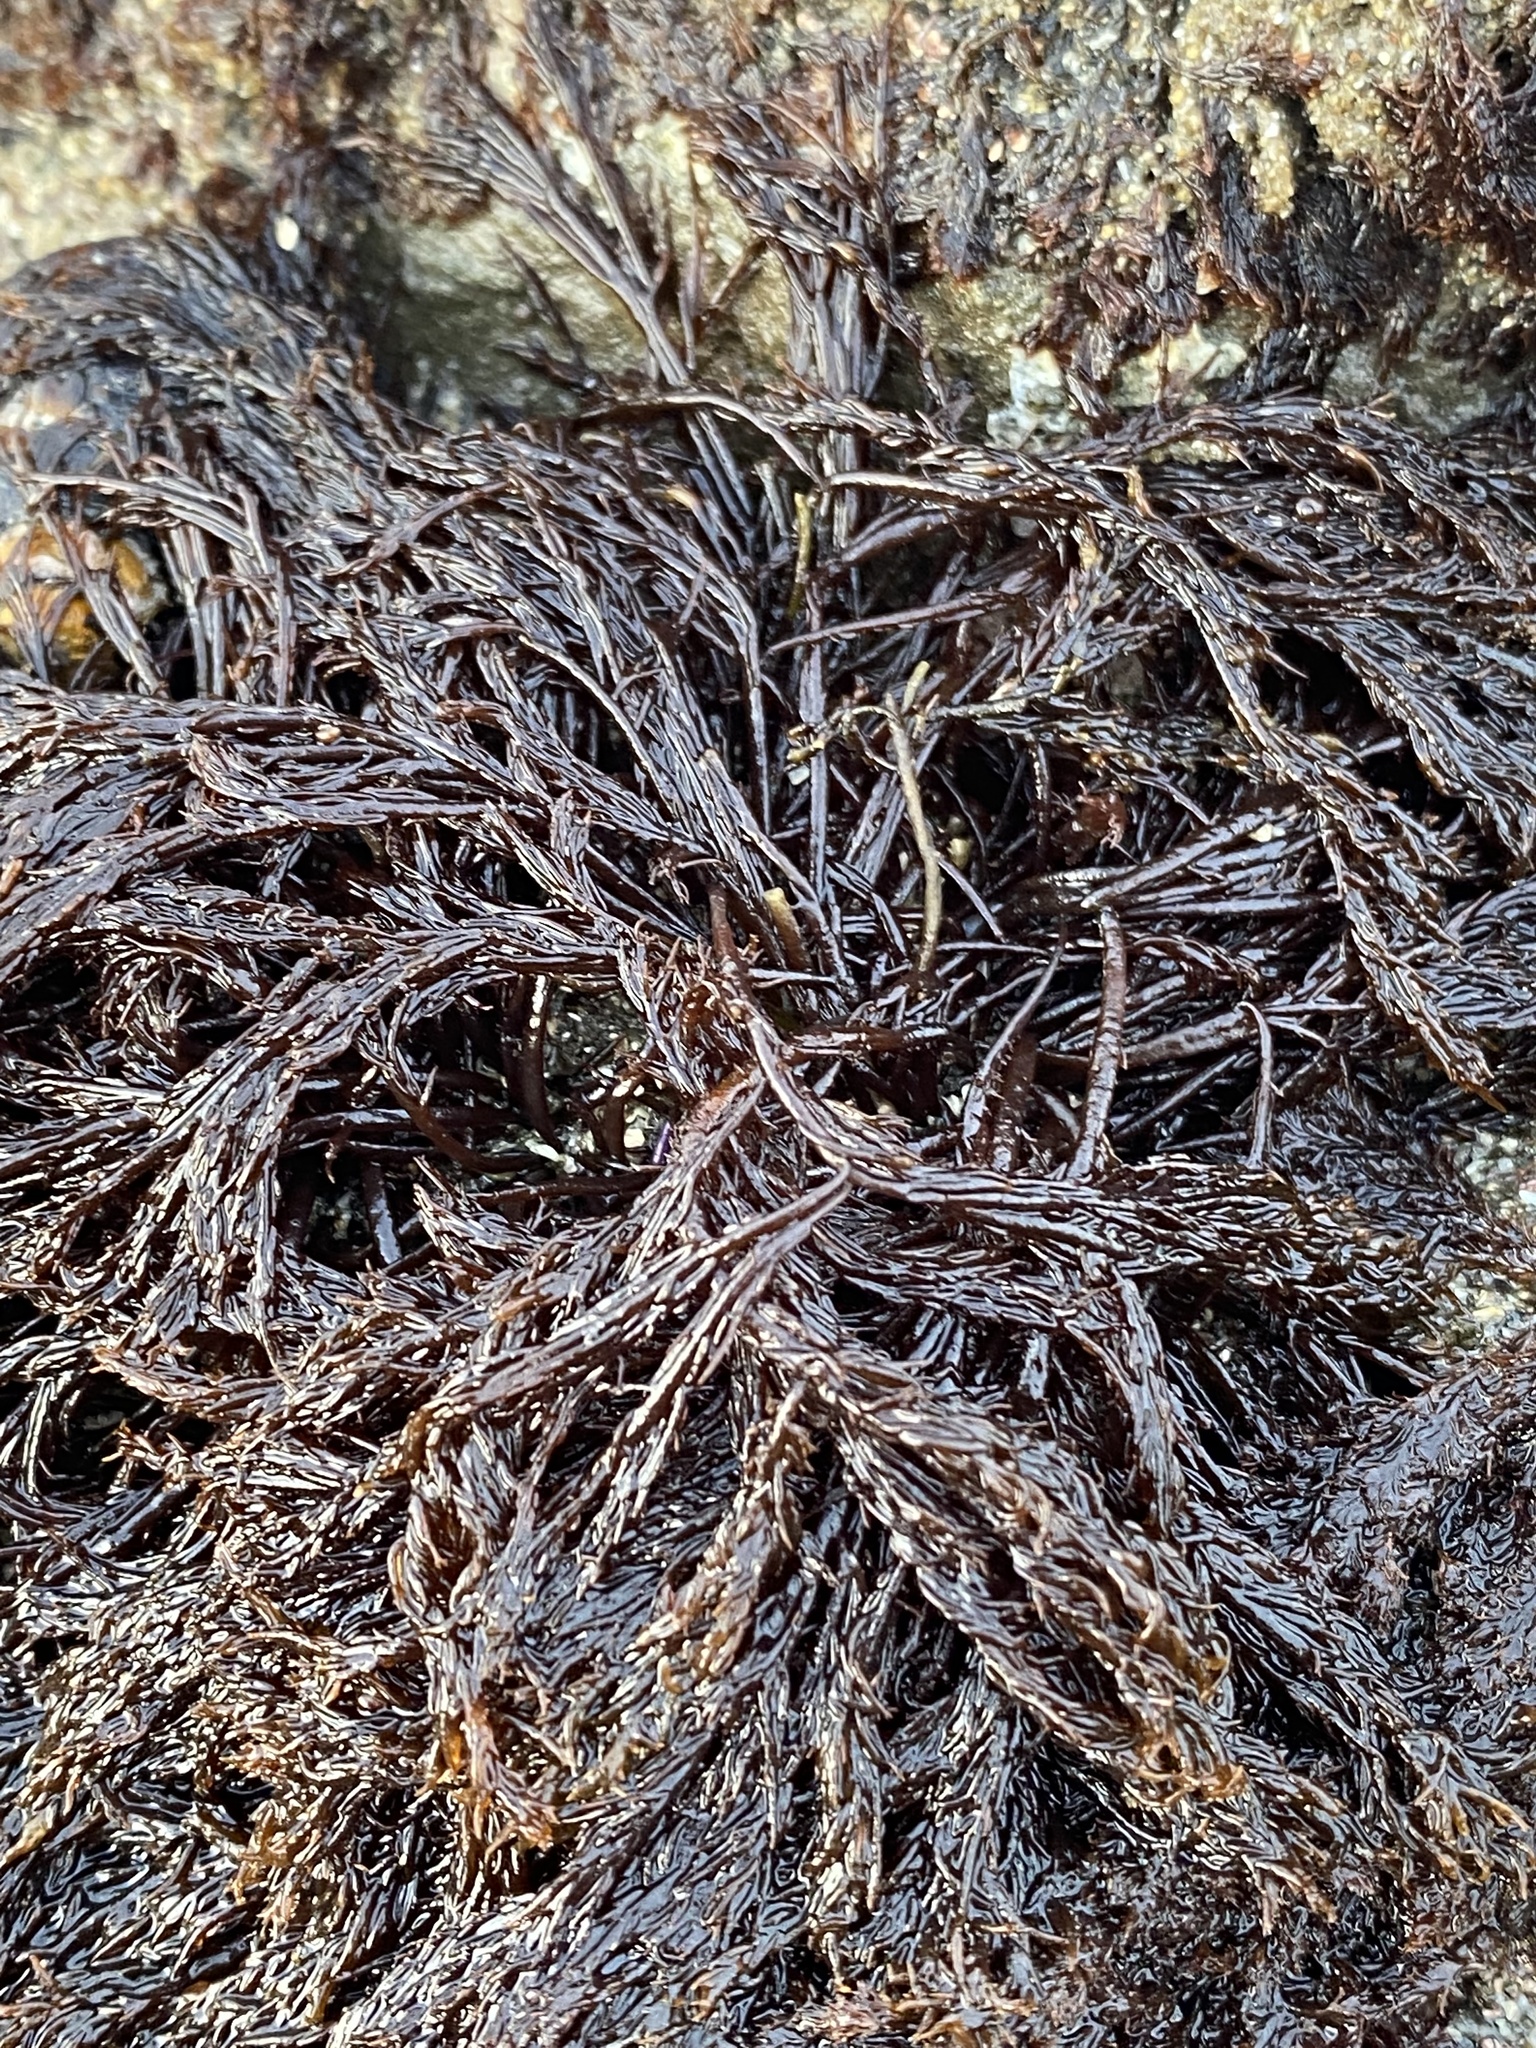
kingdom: Plantae
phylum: Rhodophyta
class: Florideophyceae
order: Gigartinales
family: Dumontiaceae
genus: Cryptosiphonia
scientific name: Cryptosiphonia woodii
